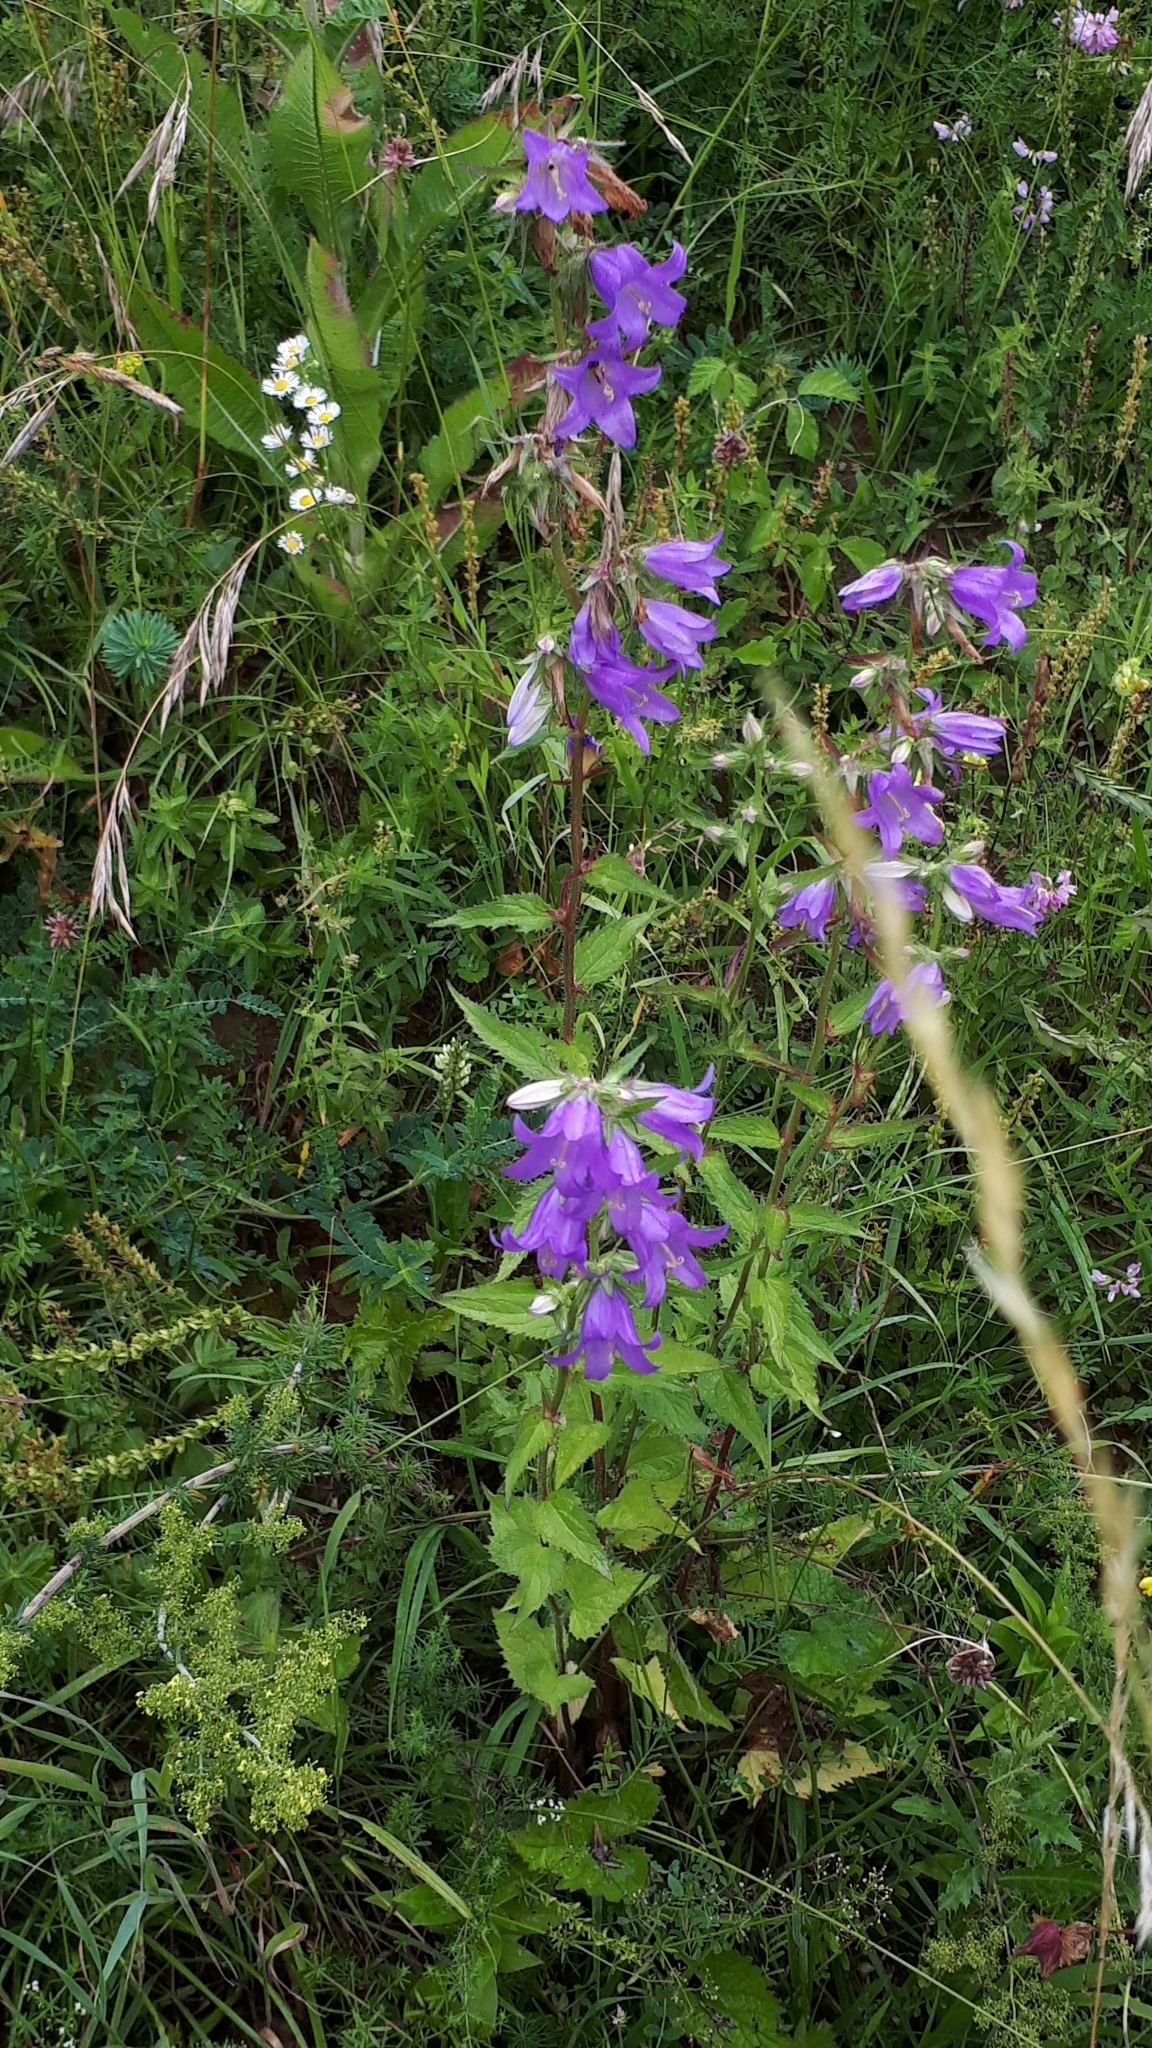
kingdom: Plantae
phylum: Tracheophyta
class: Magnoliopsida
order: Asterales
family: Campanulaceae
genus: Campanula
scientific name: Campanula trachelium
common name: Nettle-leaved bellflower
